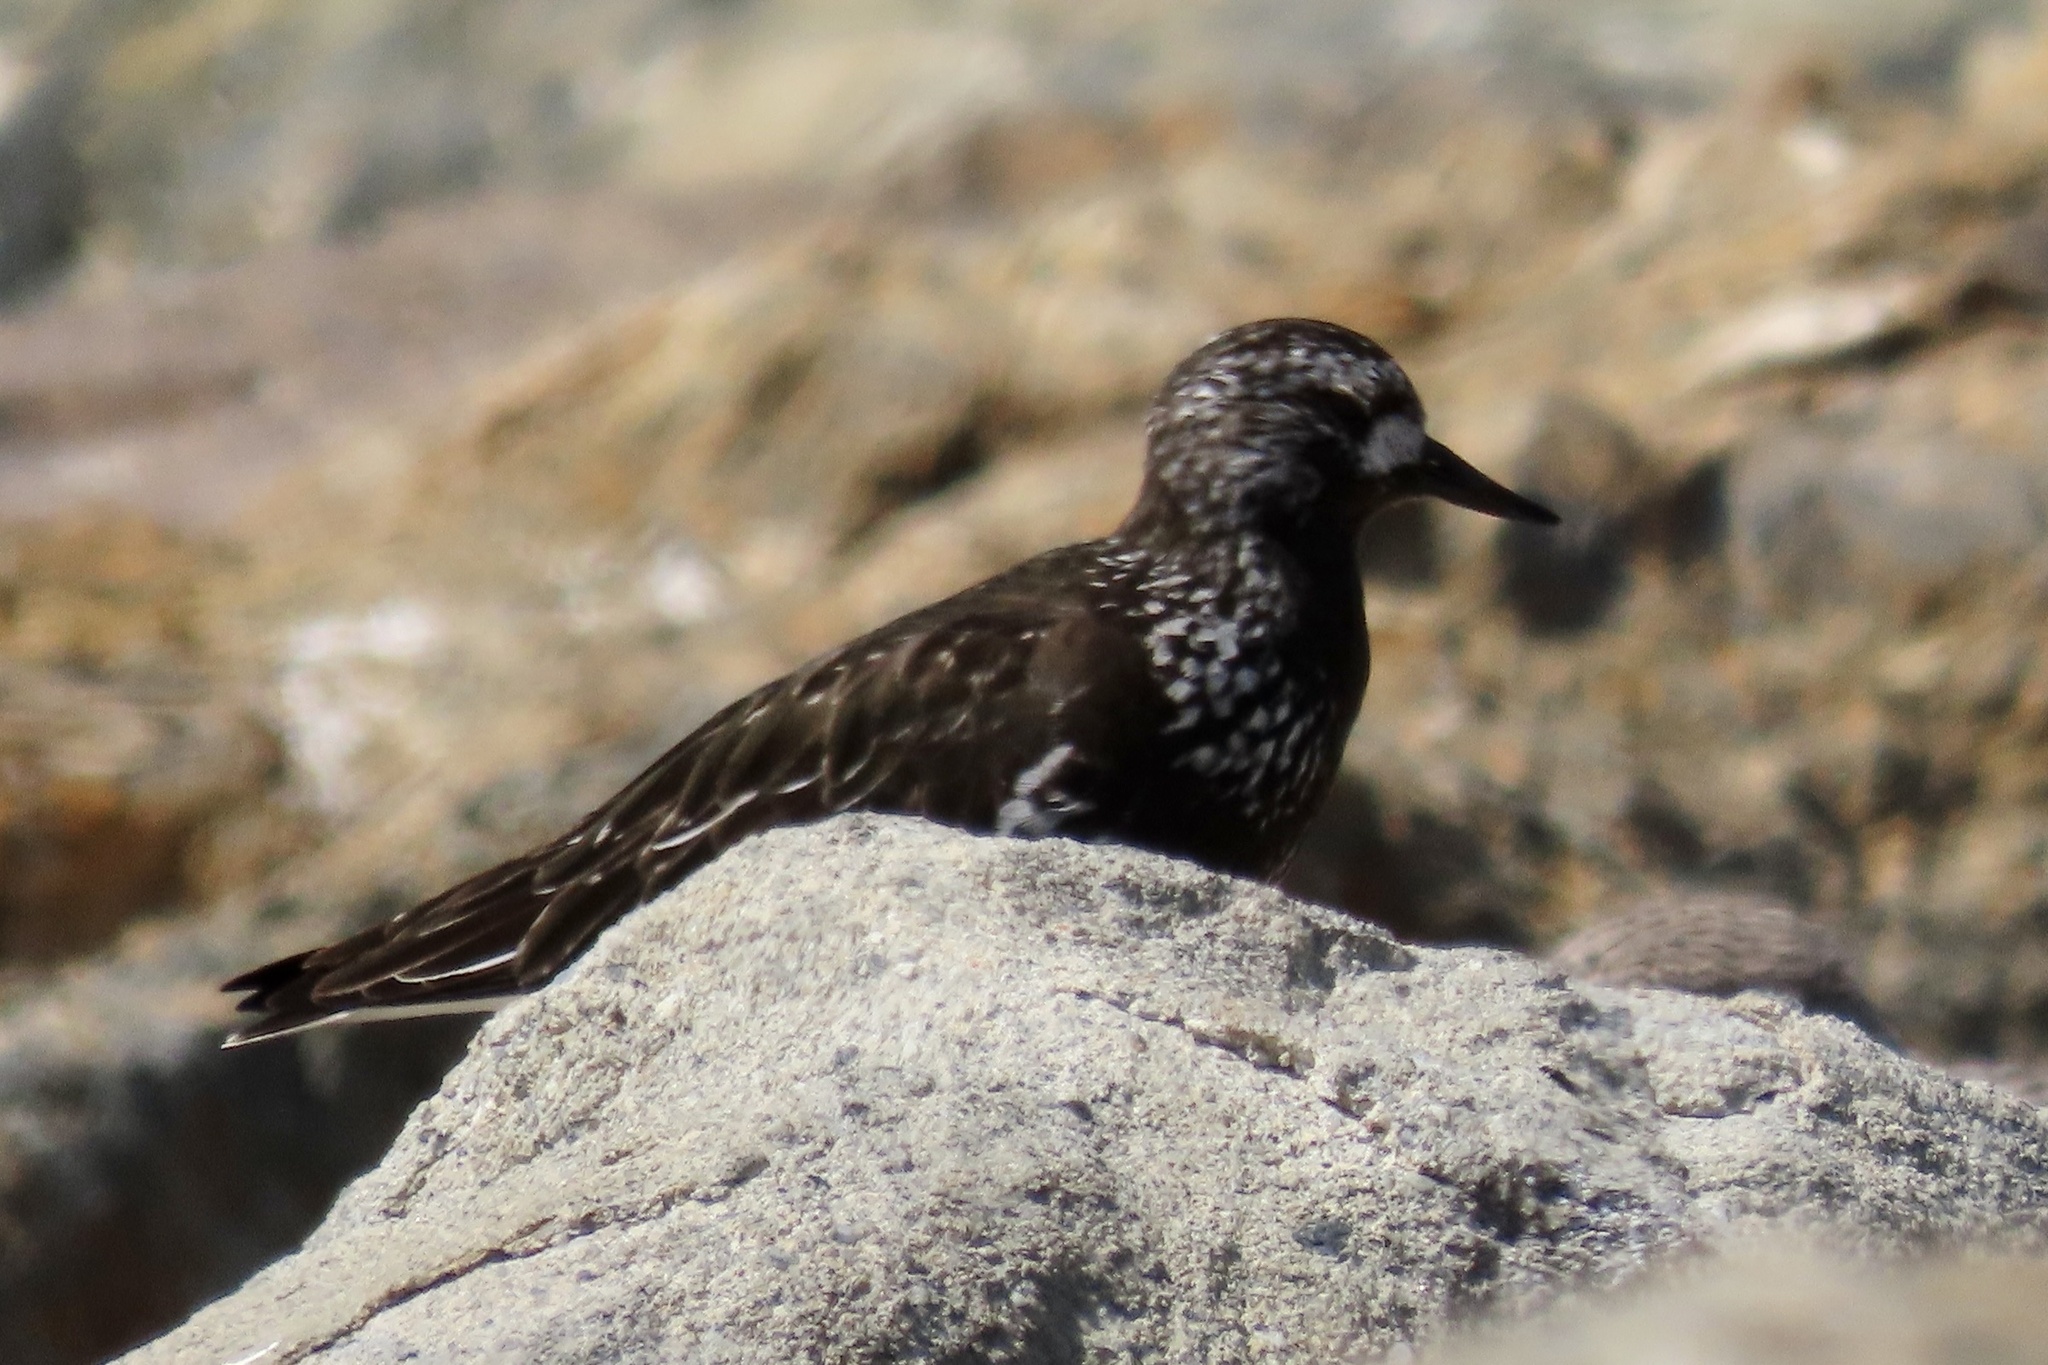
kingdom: Animalia
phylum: Chordata
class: Aves
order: Charadriiformes
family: Scolopacidae
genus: Arenaria
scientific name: Arenaria melanocephala
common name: Black turnstone
